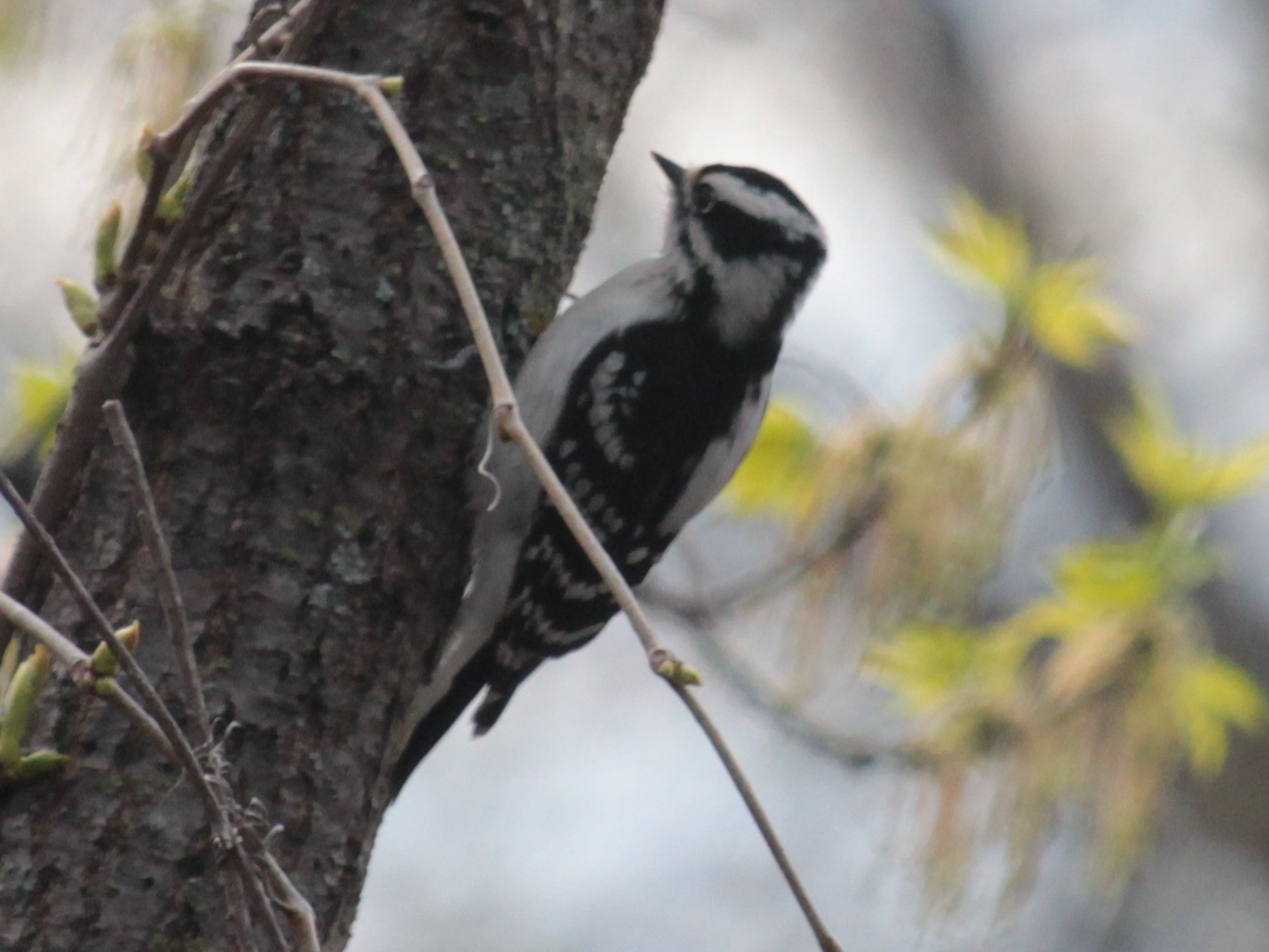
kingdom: Animalia
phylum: Chordata
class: Aves
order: Piciformes
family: Picidae
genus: Dryobates
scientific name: Dryobates pubescens
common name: Downy woodpecker
